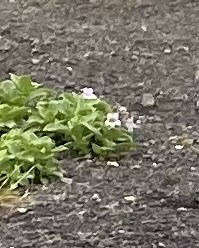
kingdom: Plantae
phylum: Tracheophyta
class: Magnoliopsida
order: Lamiales
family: Plantaginaceae
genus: Pennellianthus
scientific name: Pennellianthus frutescens
